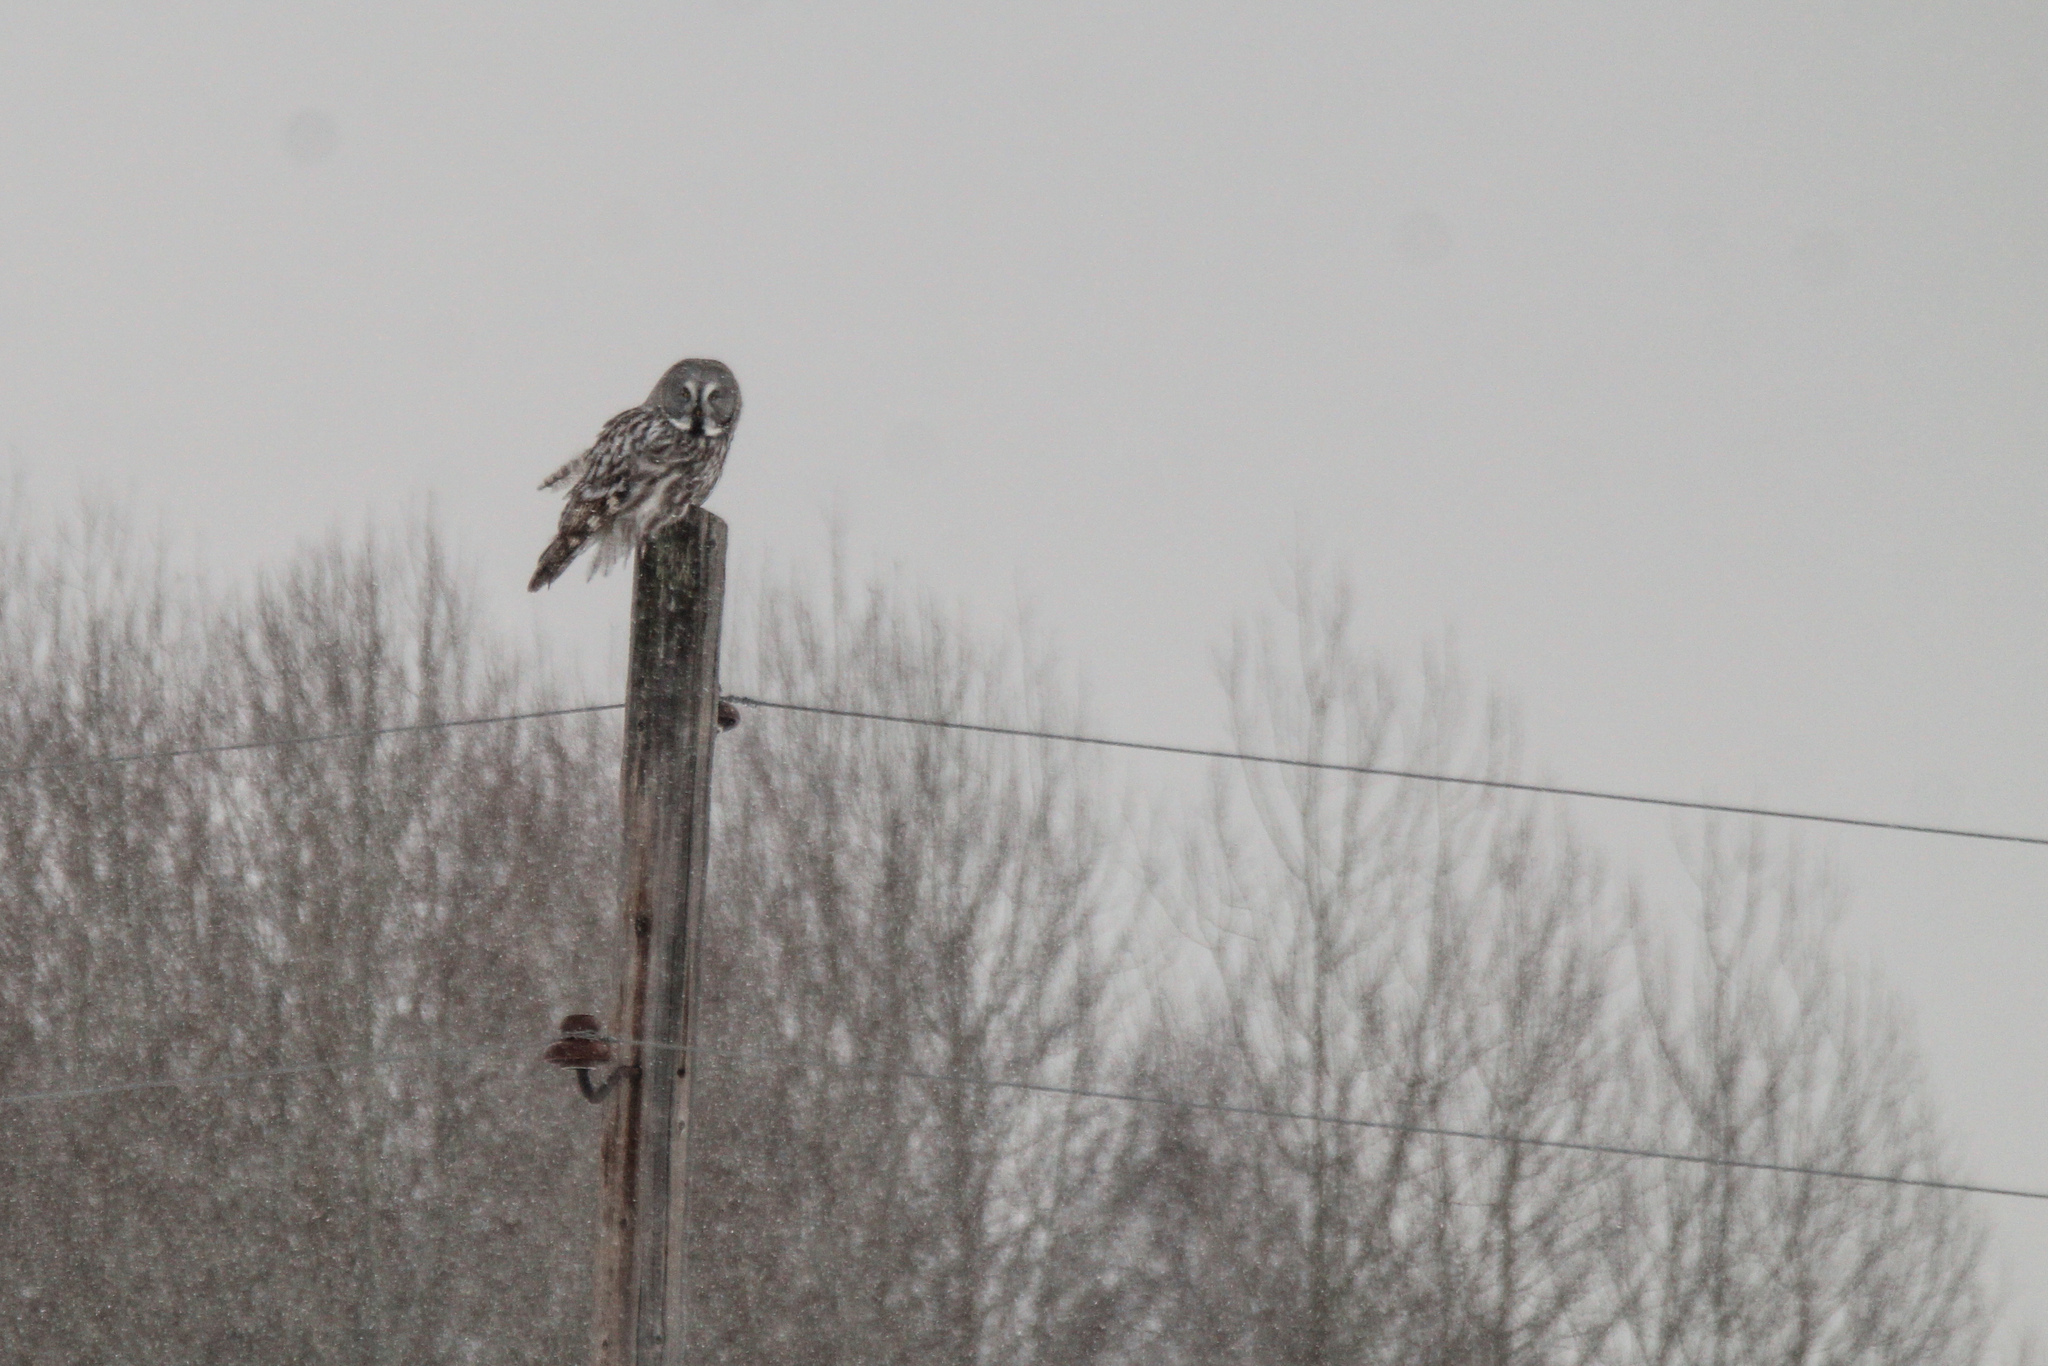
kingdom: Animalia
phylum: Chordata
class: Aves
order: Strigiformes
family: Strigidae
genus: Strix
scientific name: Strix nebulosa
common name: Great grey owl
